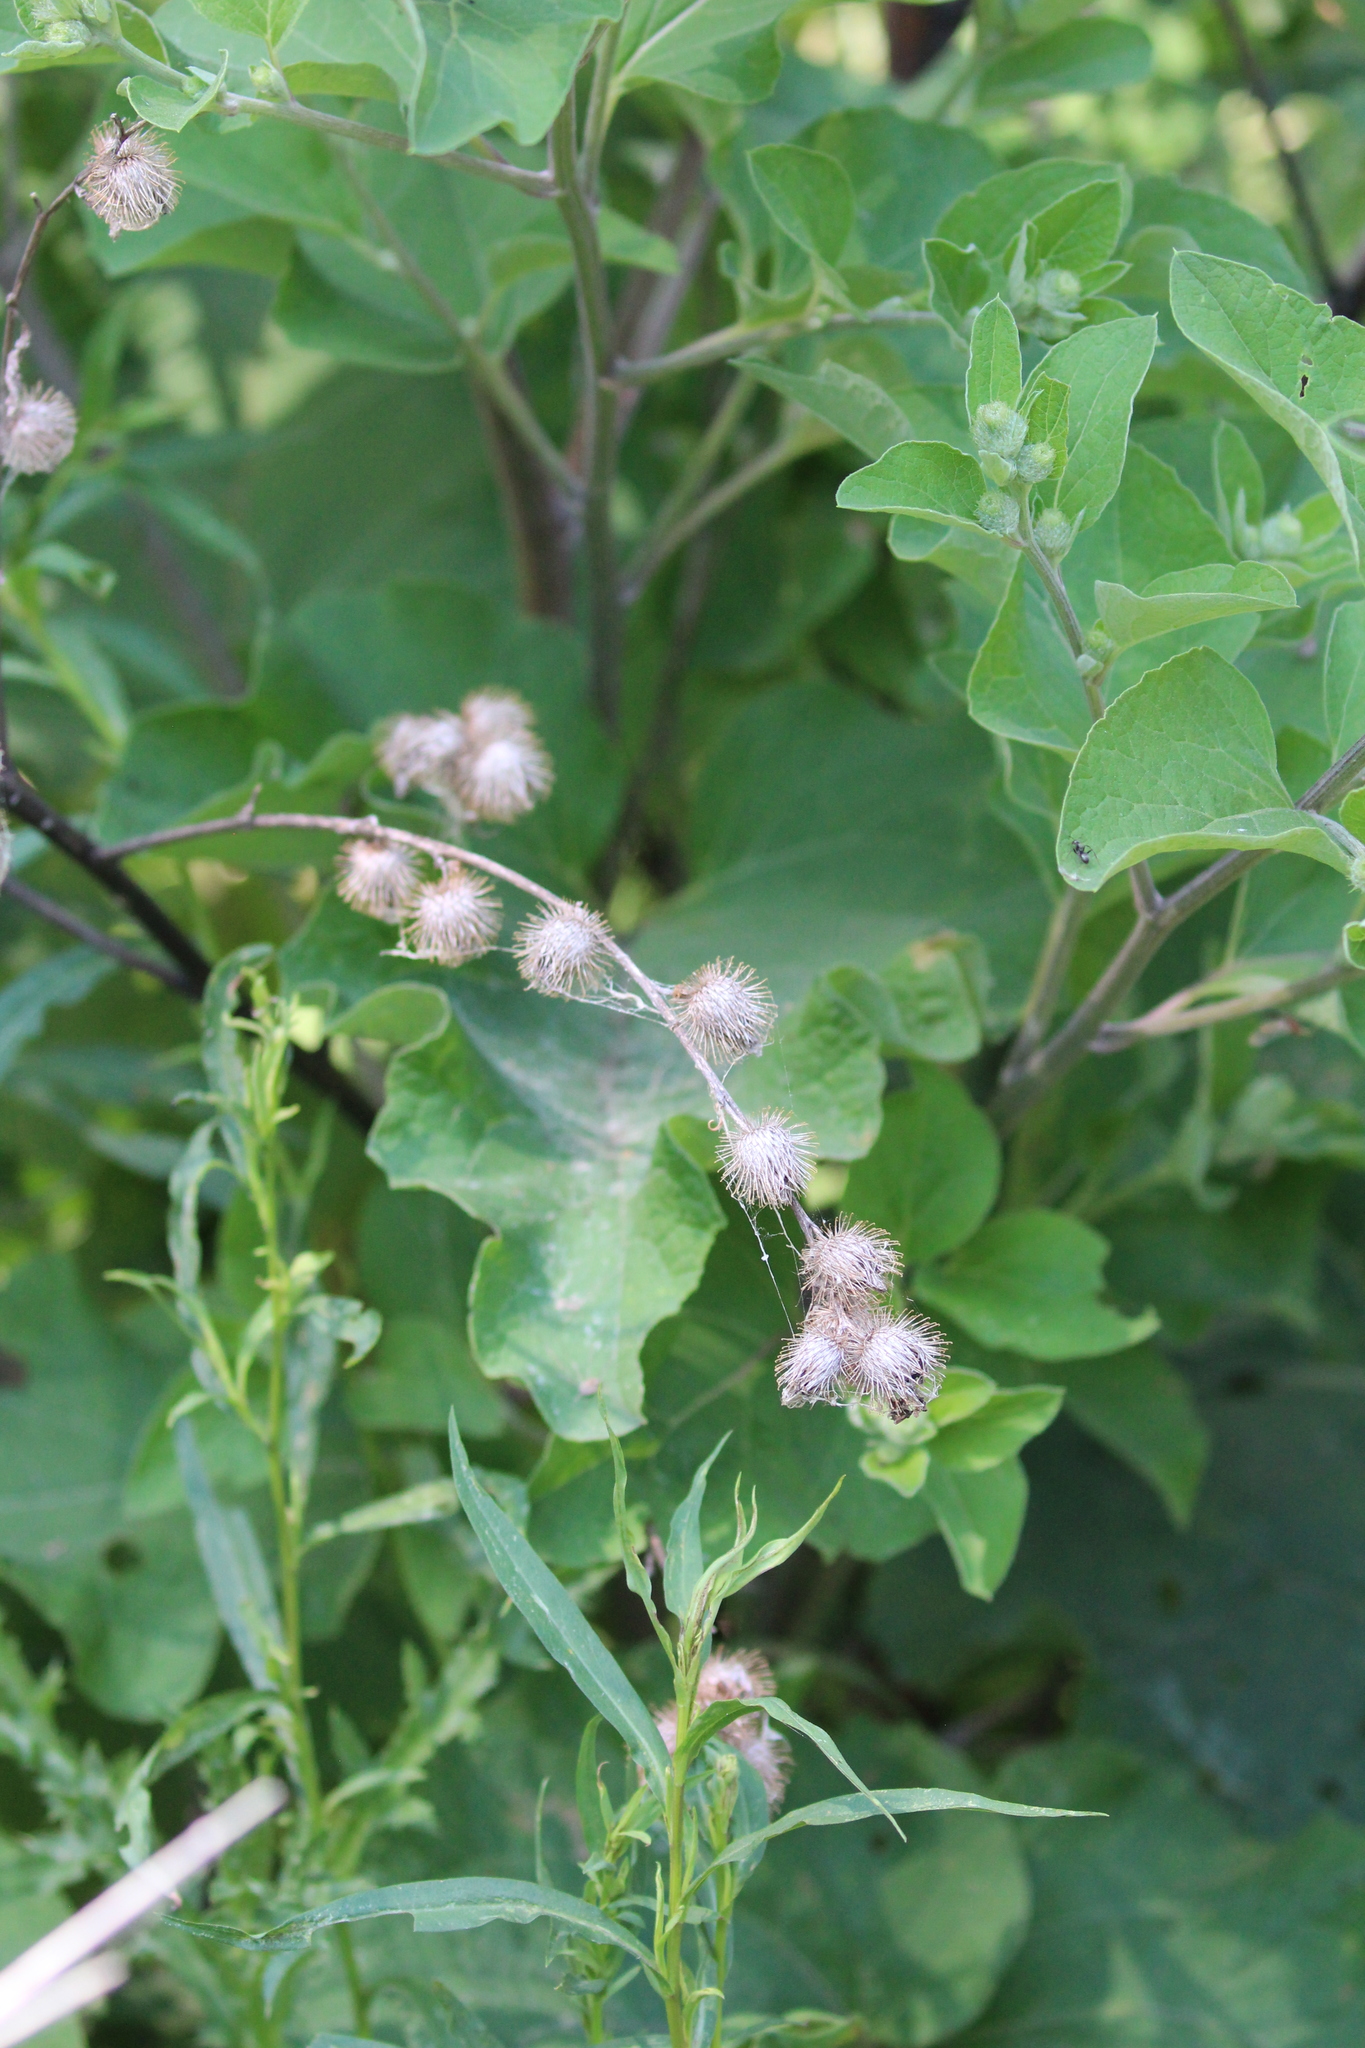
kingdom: Plantae
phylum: Tracheophyta
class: Magnoliopsida
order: Asterales
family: Asteraceae
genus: Arctium
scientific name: Arctium minus
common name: Lesser burdock
